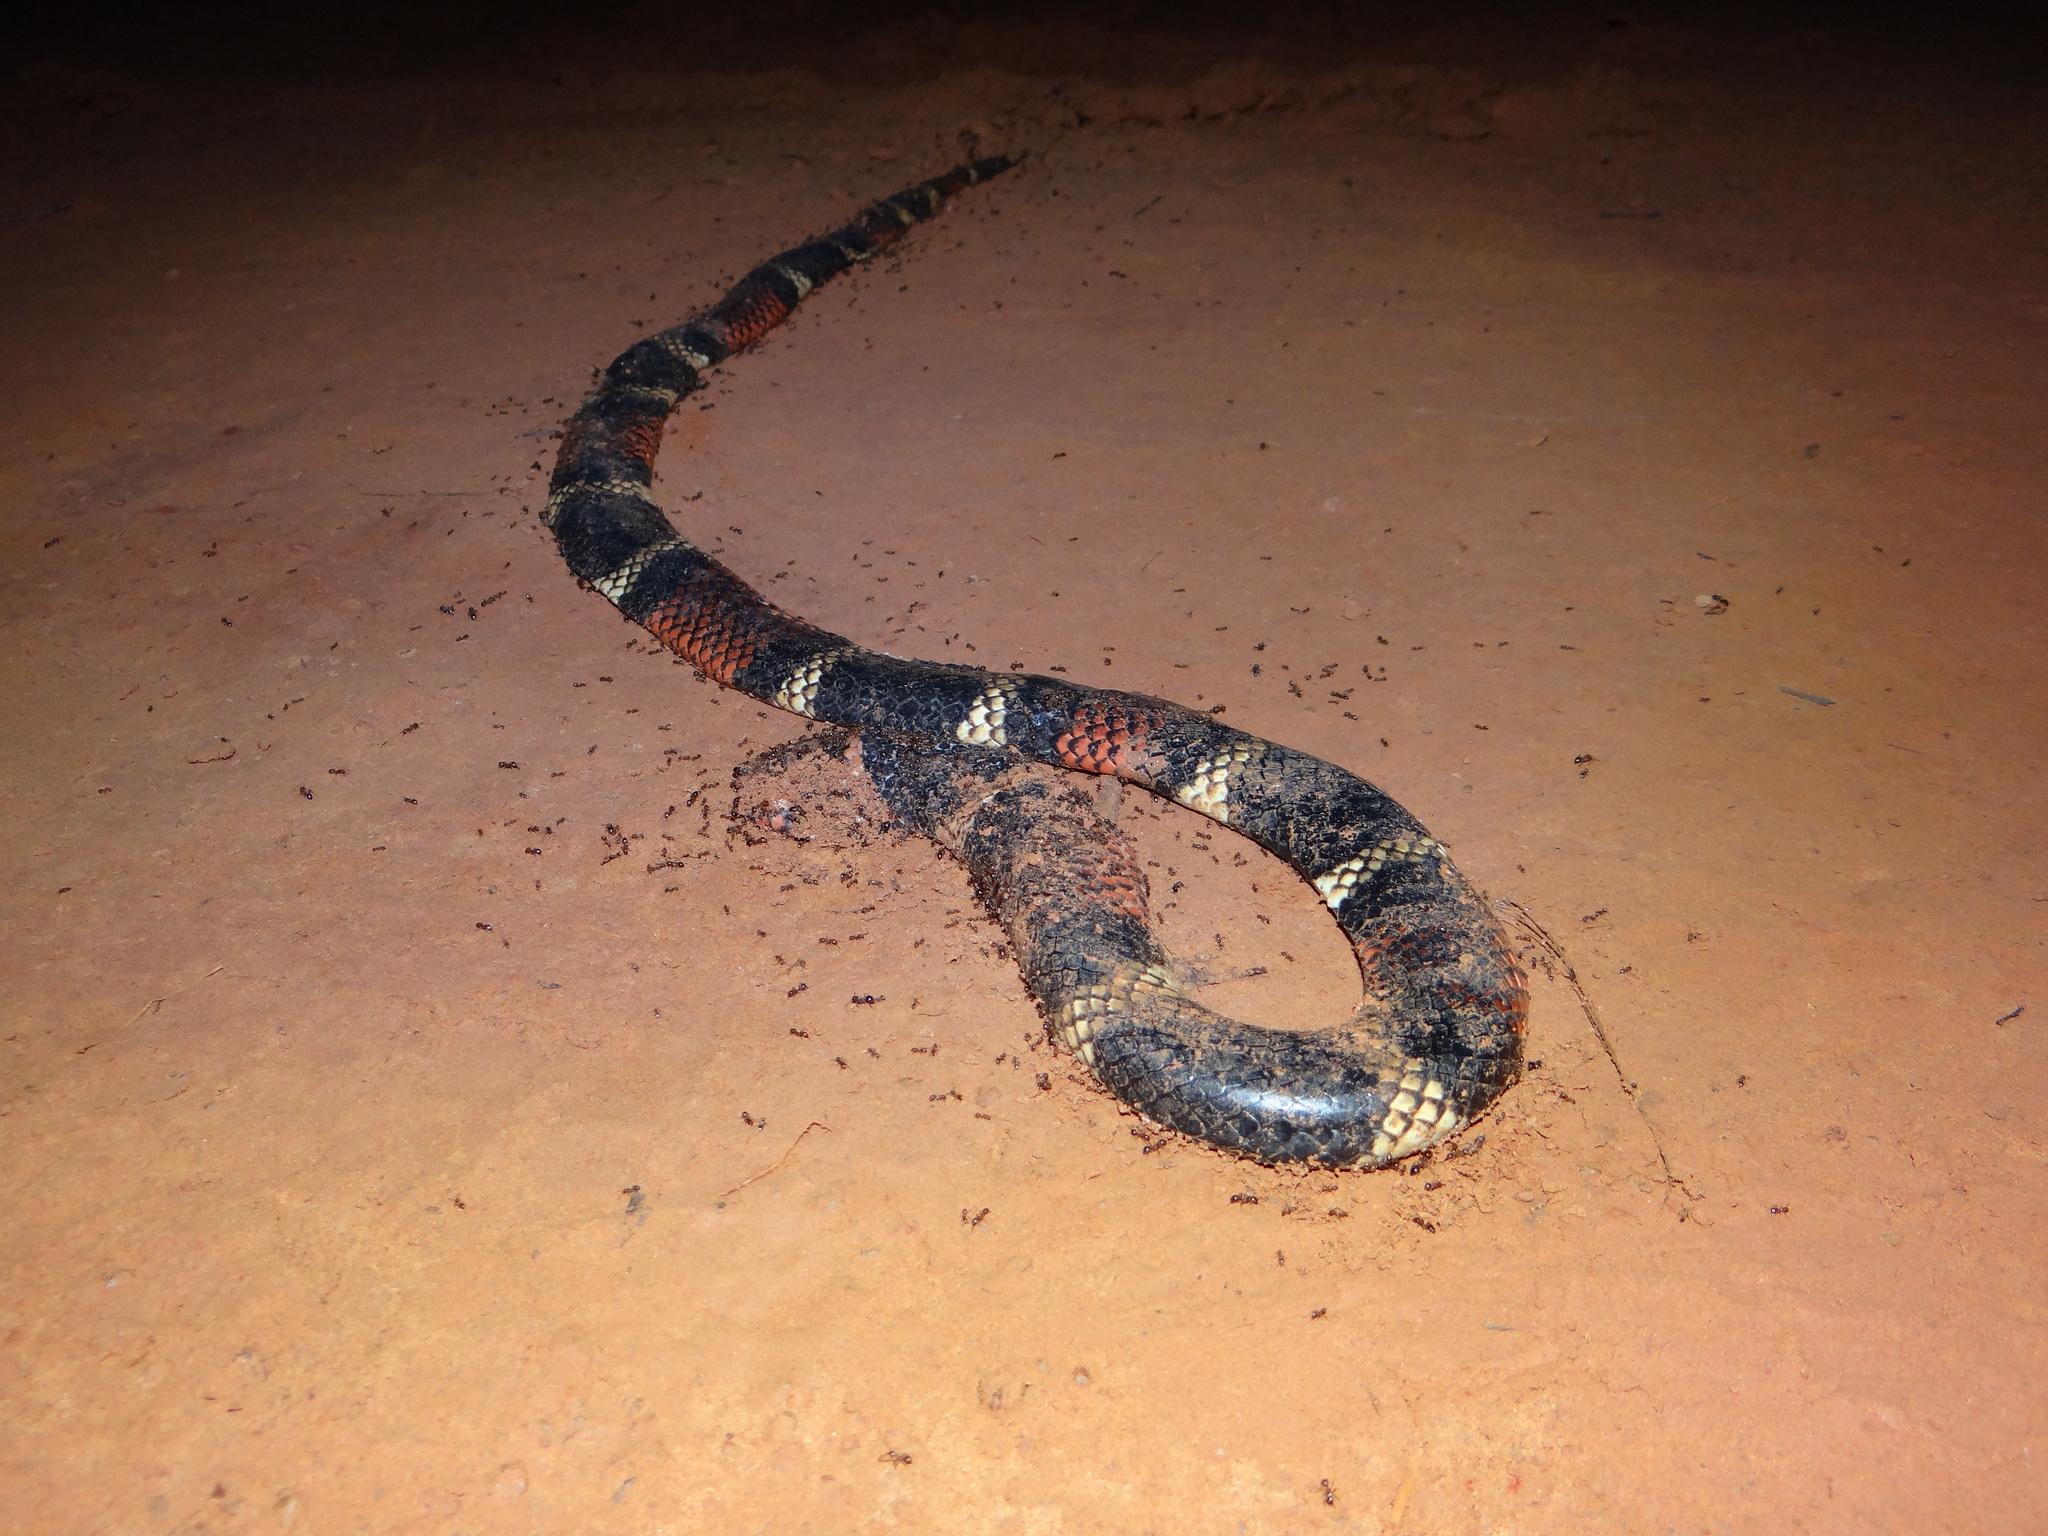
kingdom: Animalia
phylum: Chordata
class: Squamata
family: Elapidae
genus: Micrurus
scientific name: Micrurus surinamensis
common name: Aquatic coral snake
